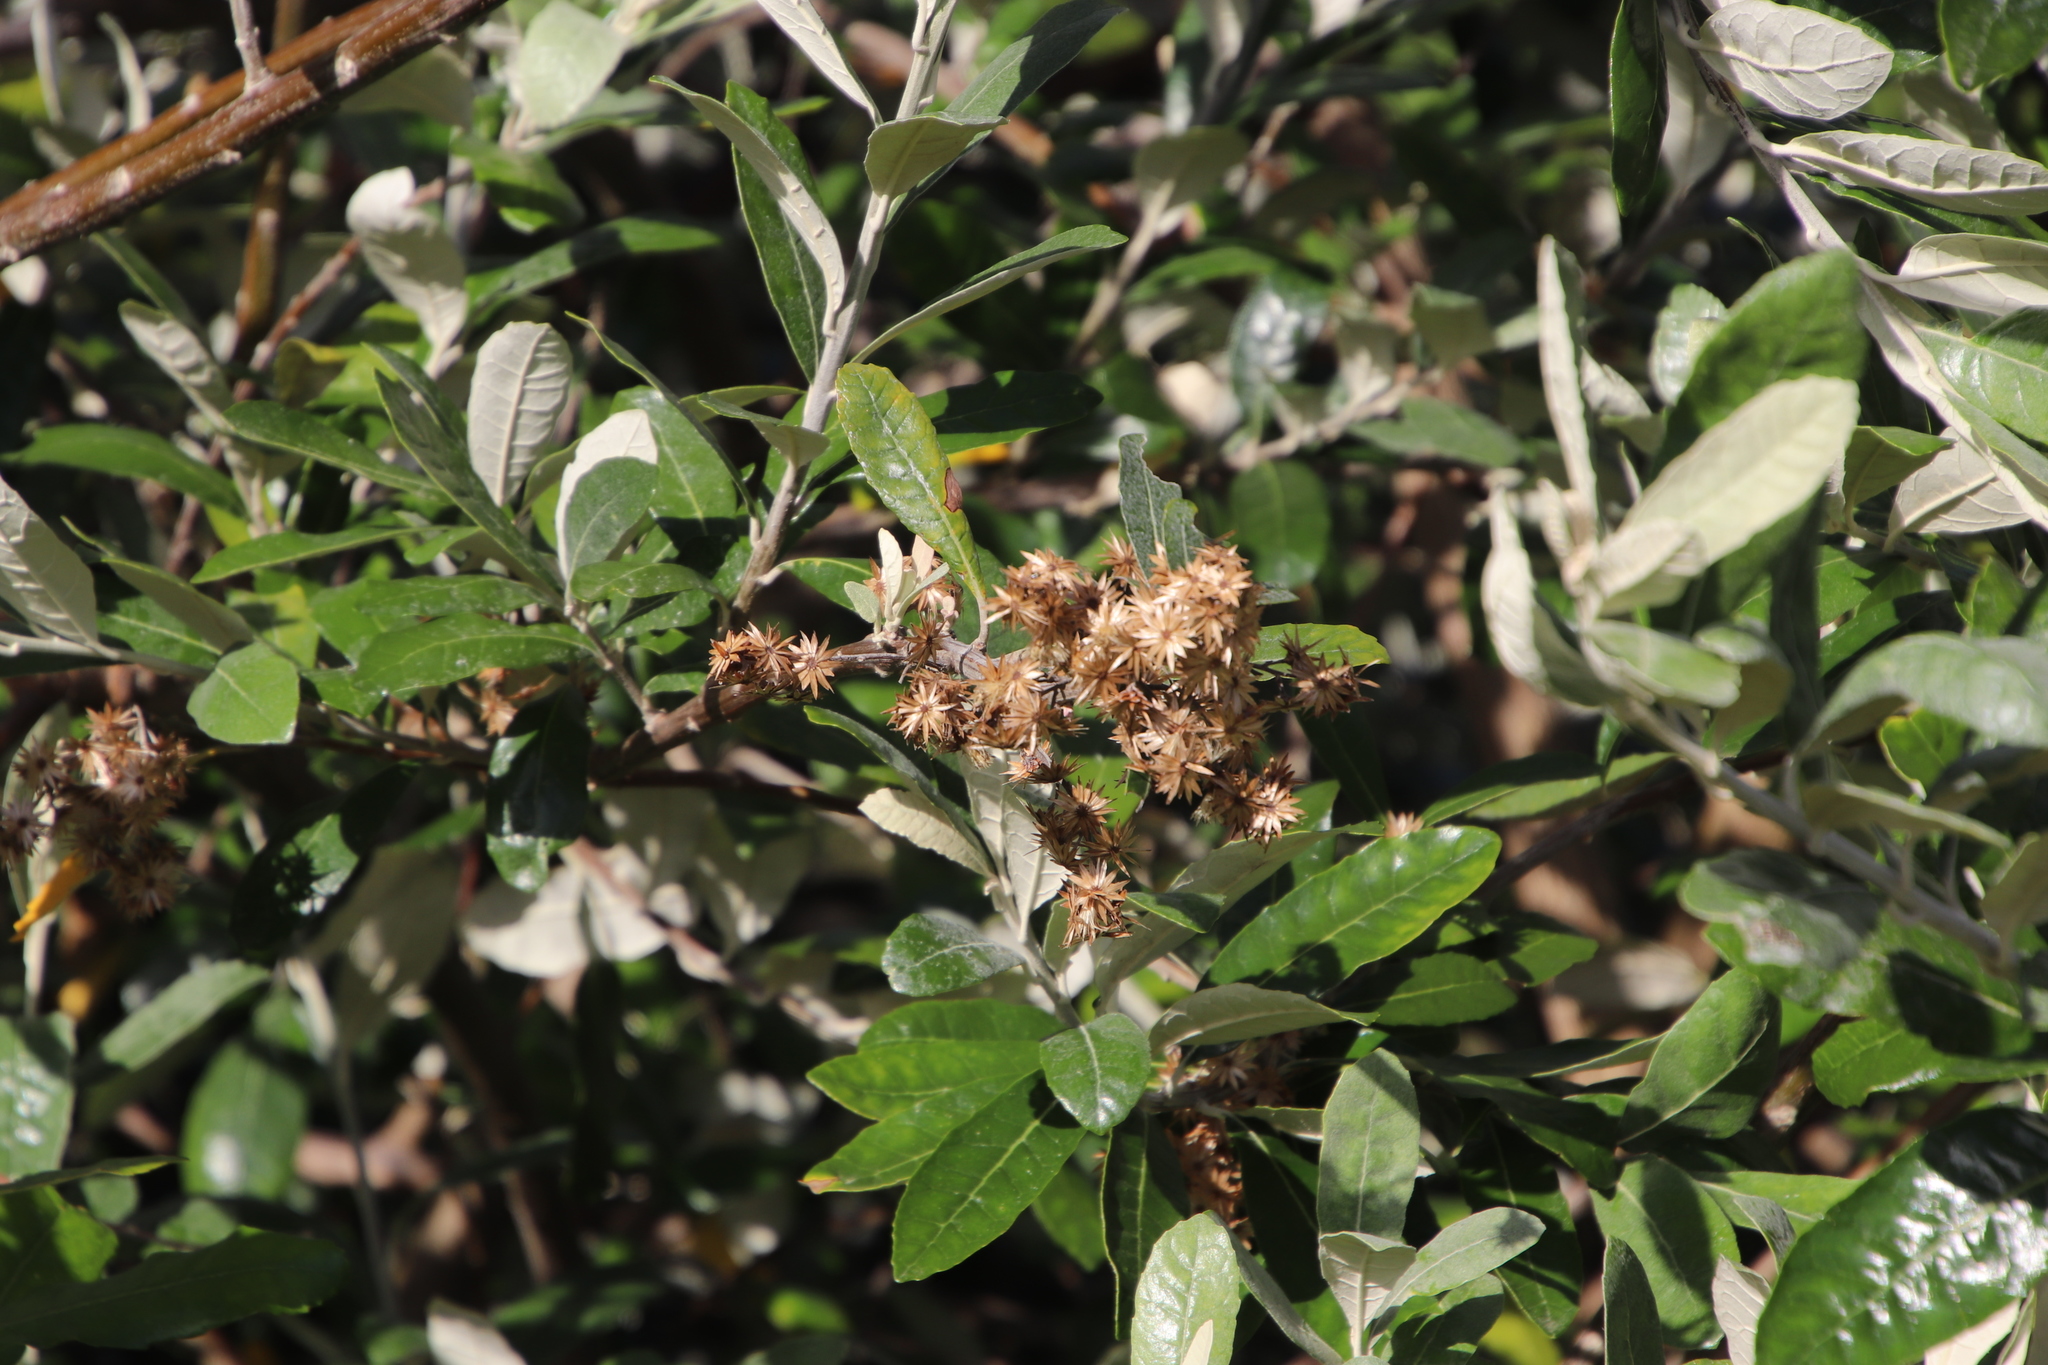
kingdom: Plantae
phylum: Tracheophyta
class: Magnoliopsida
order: Asterales
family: Asteraceae
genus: Brachylaena
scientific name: Brachylaena discolor
